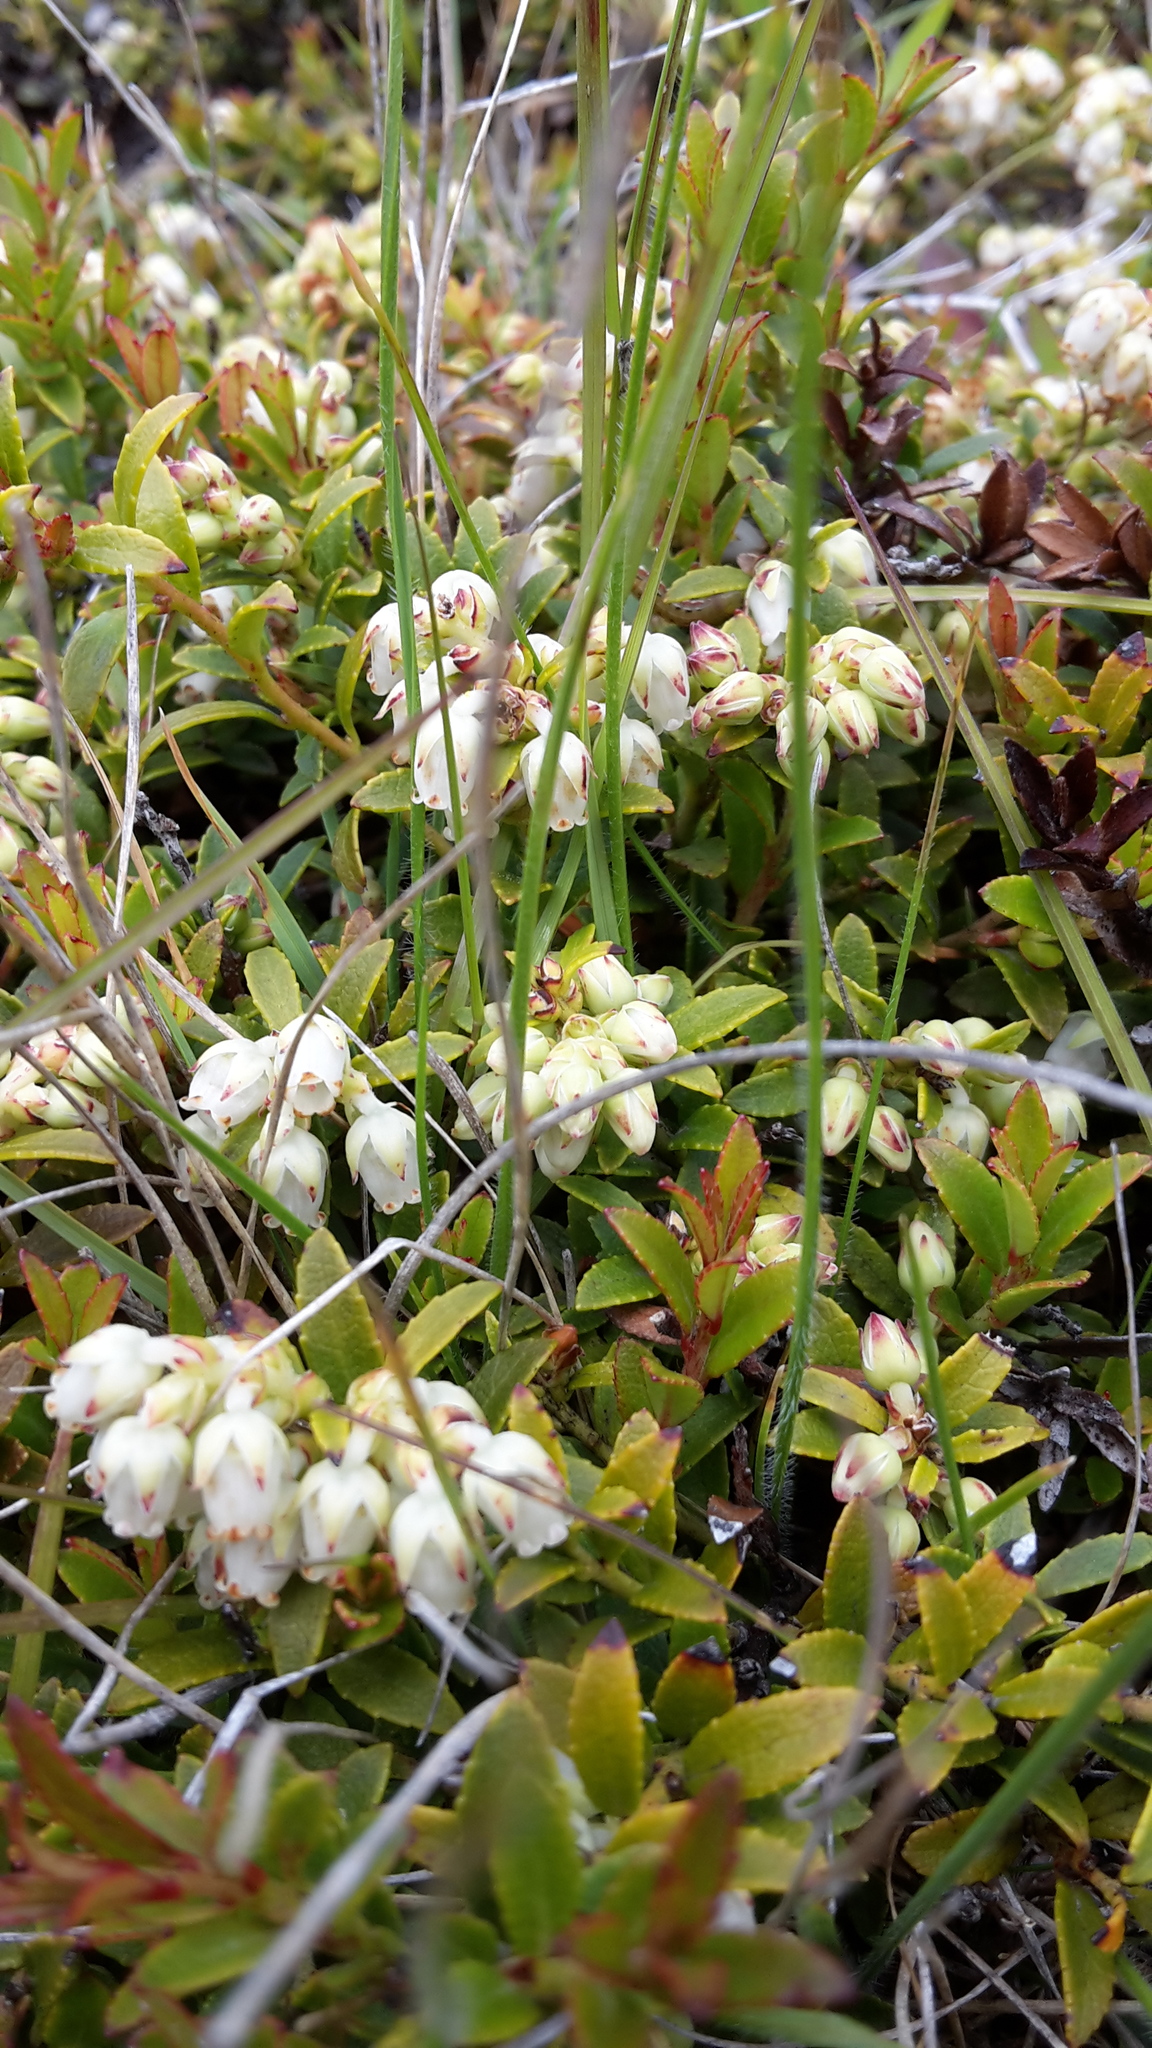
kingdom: Plantae
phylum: Tracheophyta
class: Magnoliopsida
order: Ericales
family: Ericaceae
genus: Gaultheria
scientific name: Gaultheria crassa
